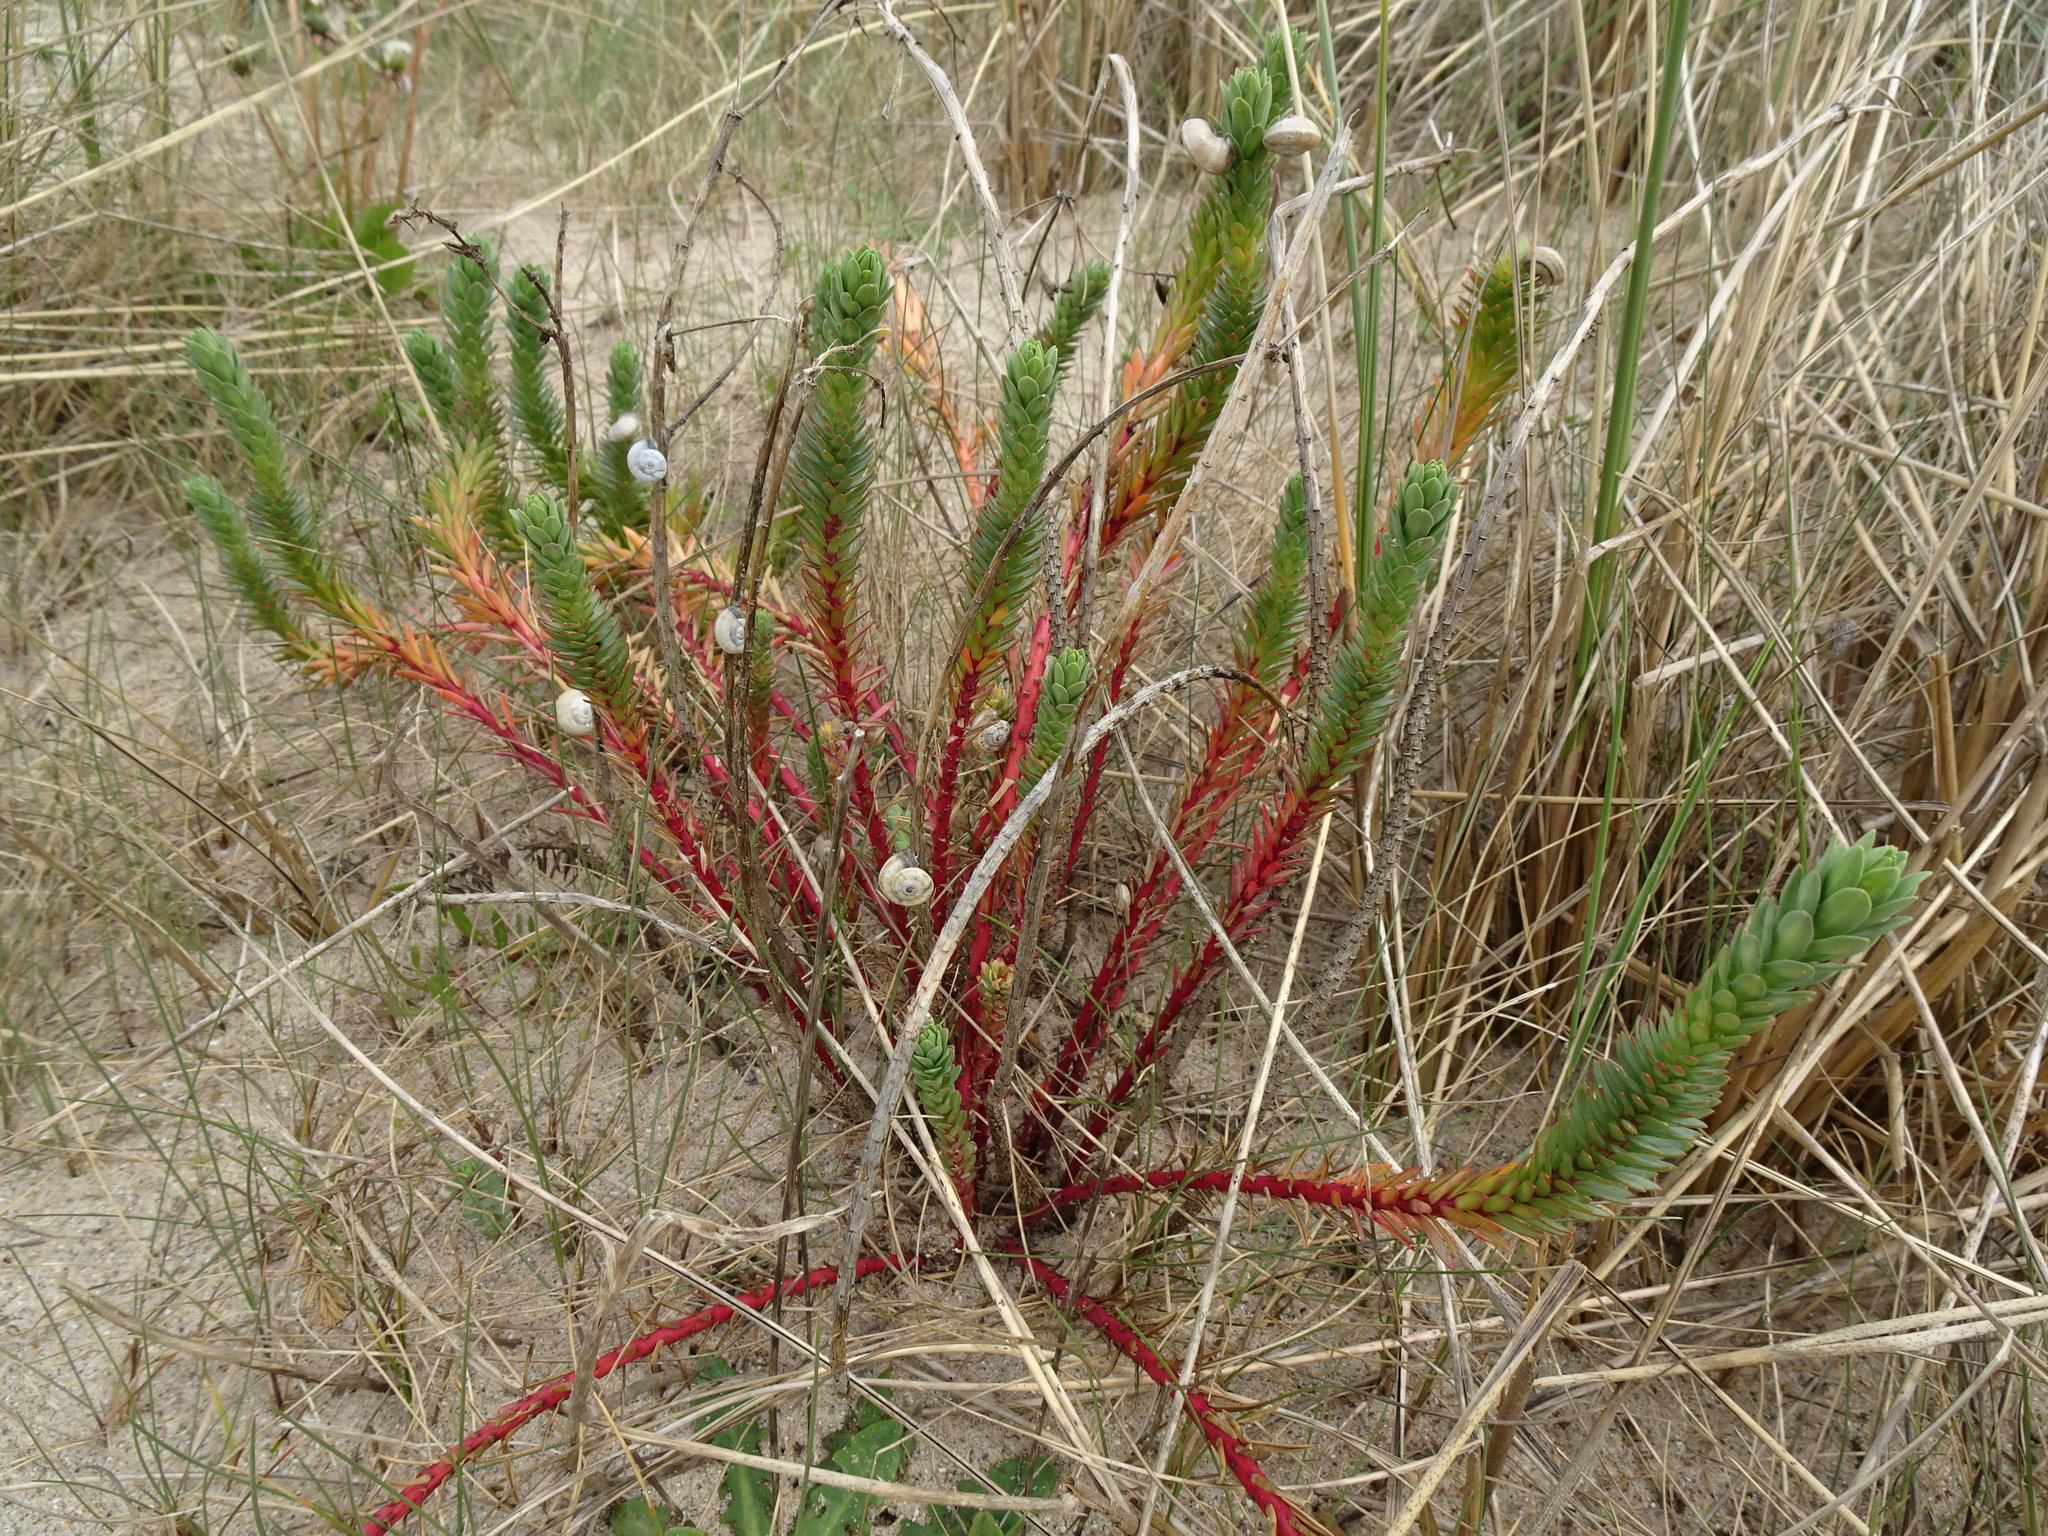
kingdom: Plantae
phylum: Tracheophyta
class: Magnoliopsida
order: Malpighiales
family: Euphorbiaceae
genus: Euphorbia
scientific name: Euphorbia paralias
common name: Sea spurge
